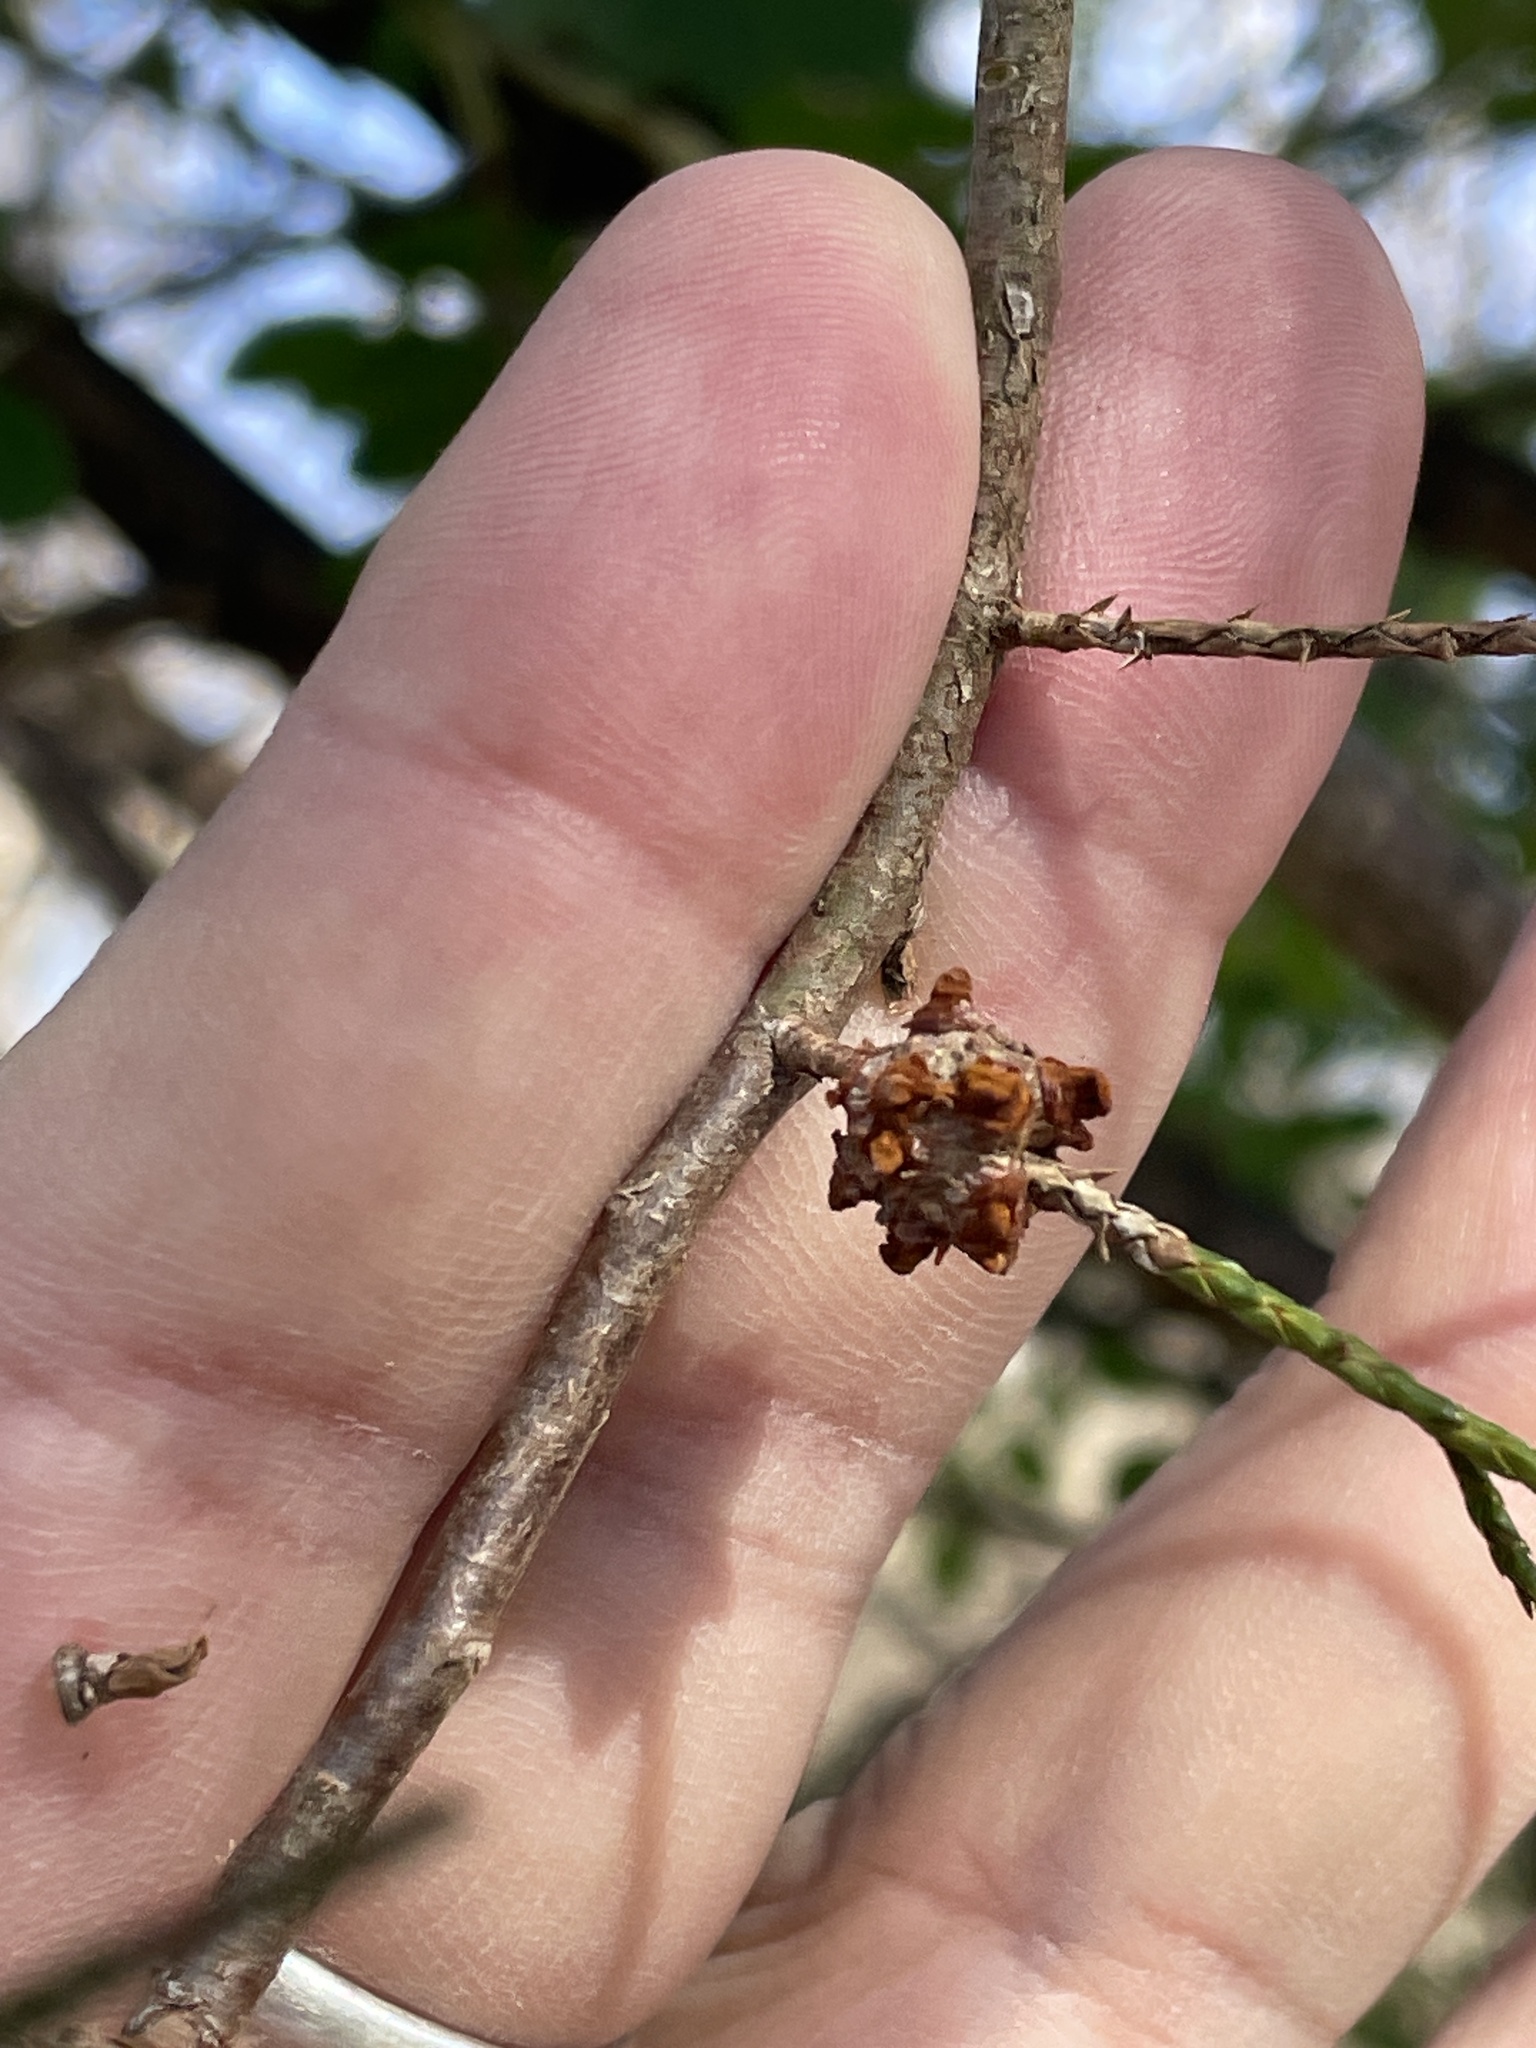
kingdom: Fungi
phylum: Basidiomycota
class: Pucciniomycetes
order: Pucciniales
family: Gymnosporangiaceae
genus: Gymnosporangium
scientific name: Gymnosporangium globosum
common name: Juniper-hawthorn rust
